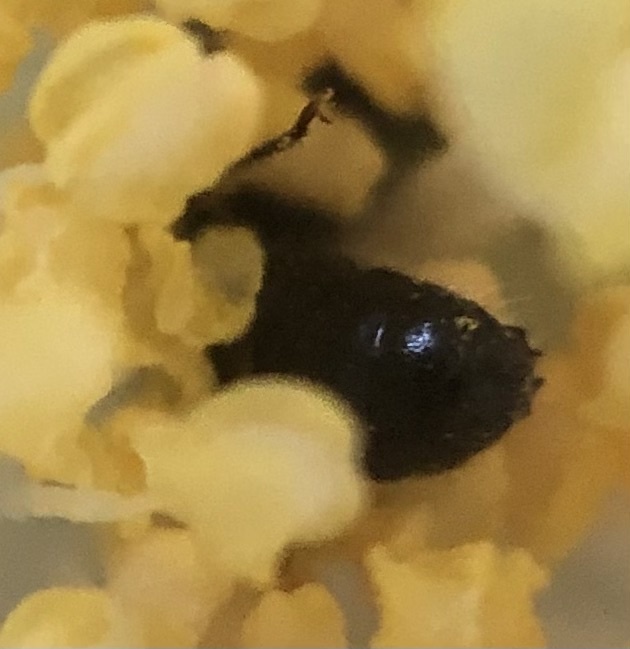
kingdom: Animalia
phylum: Arthropoda
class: Insecta
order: Hymenoptera
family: Megachilidae
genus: Chelostoma
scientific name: Chelostoma philadelphi
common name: Mock-orange scissor bee
